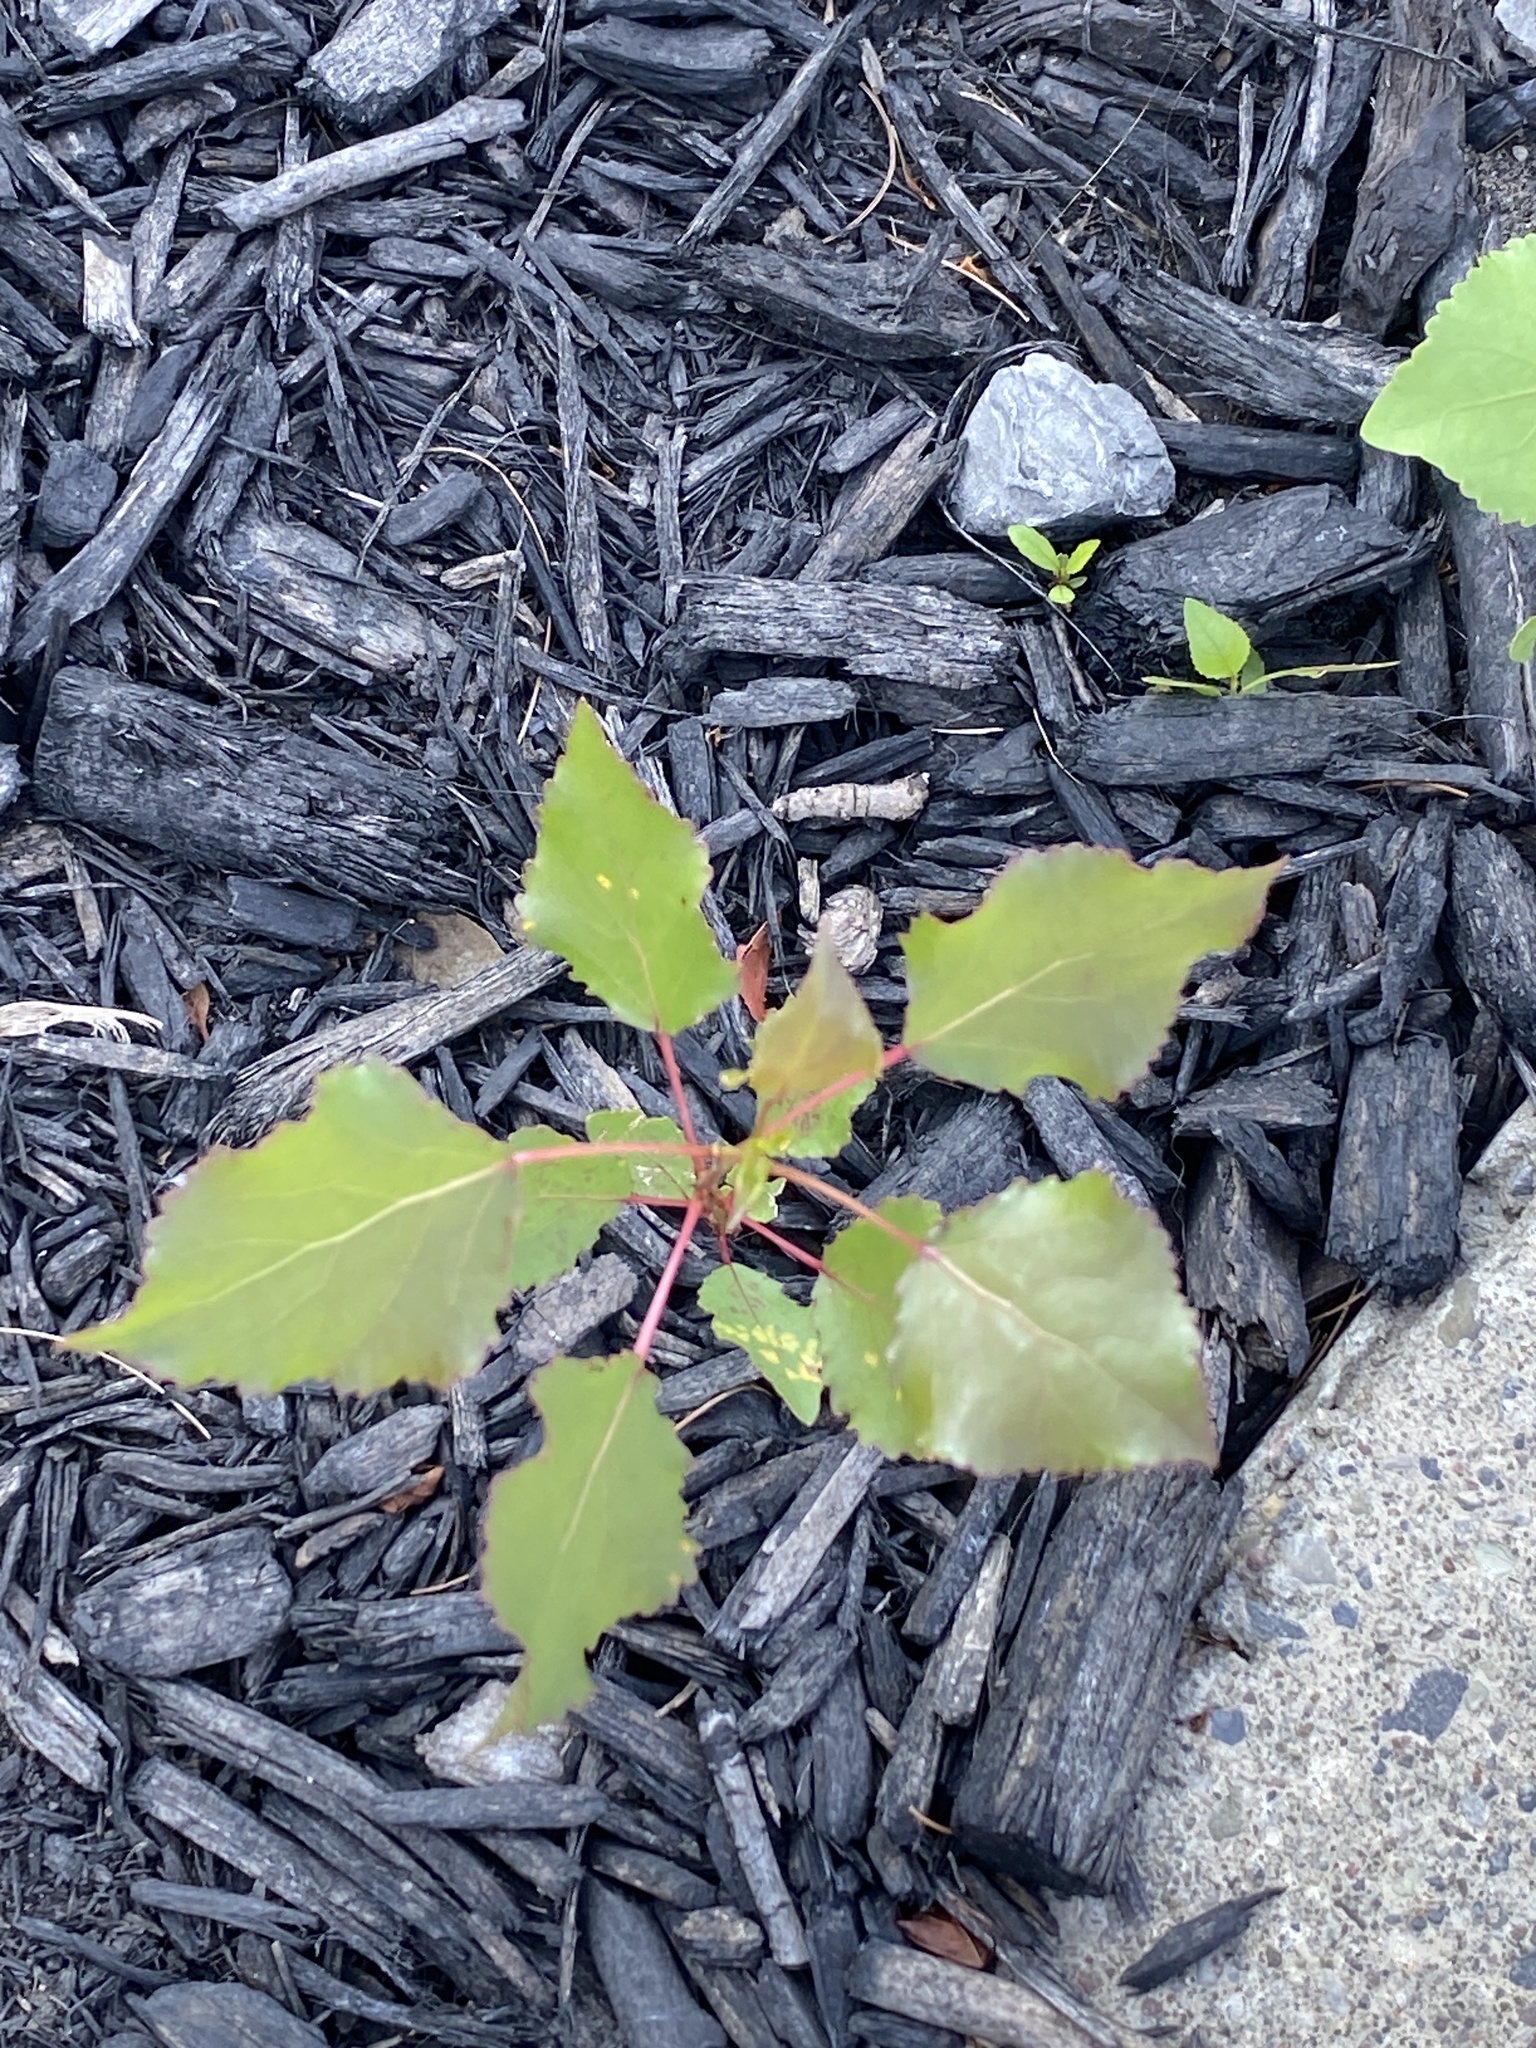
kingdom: Plantae
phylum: Tracheophyta
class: Magnoliopsida
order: Malpighiales
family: Salicaceae
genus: Populus
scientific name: Populus deltoides
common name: Eastern cottonwood
